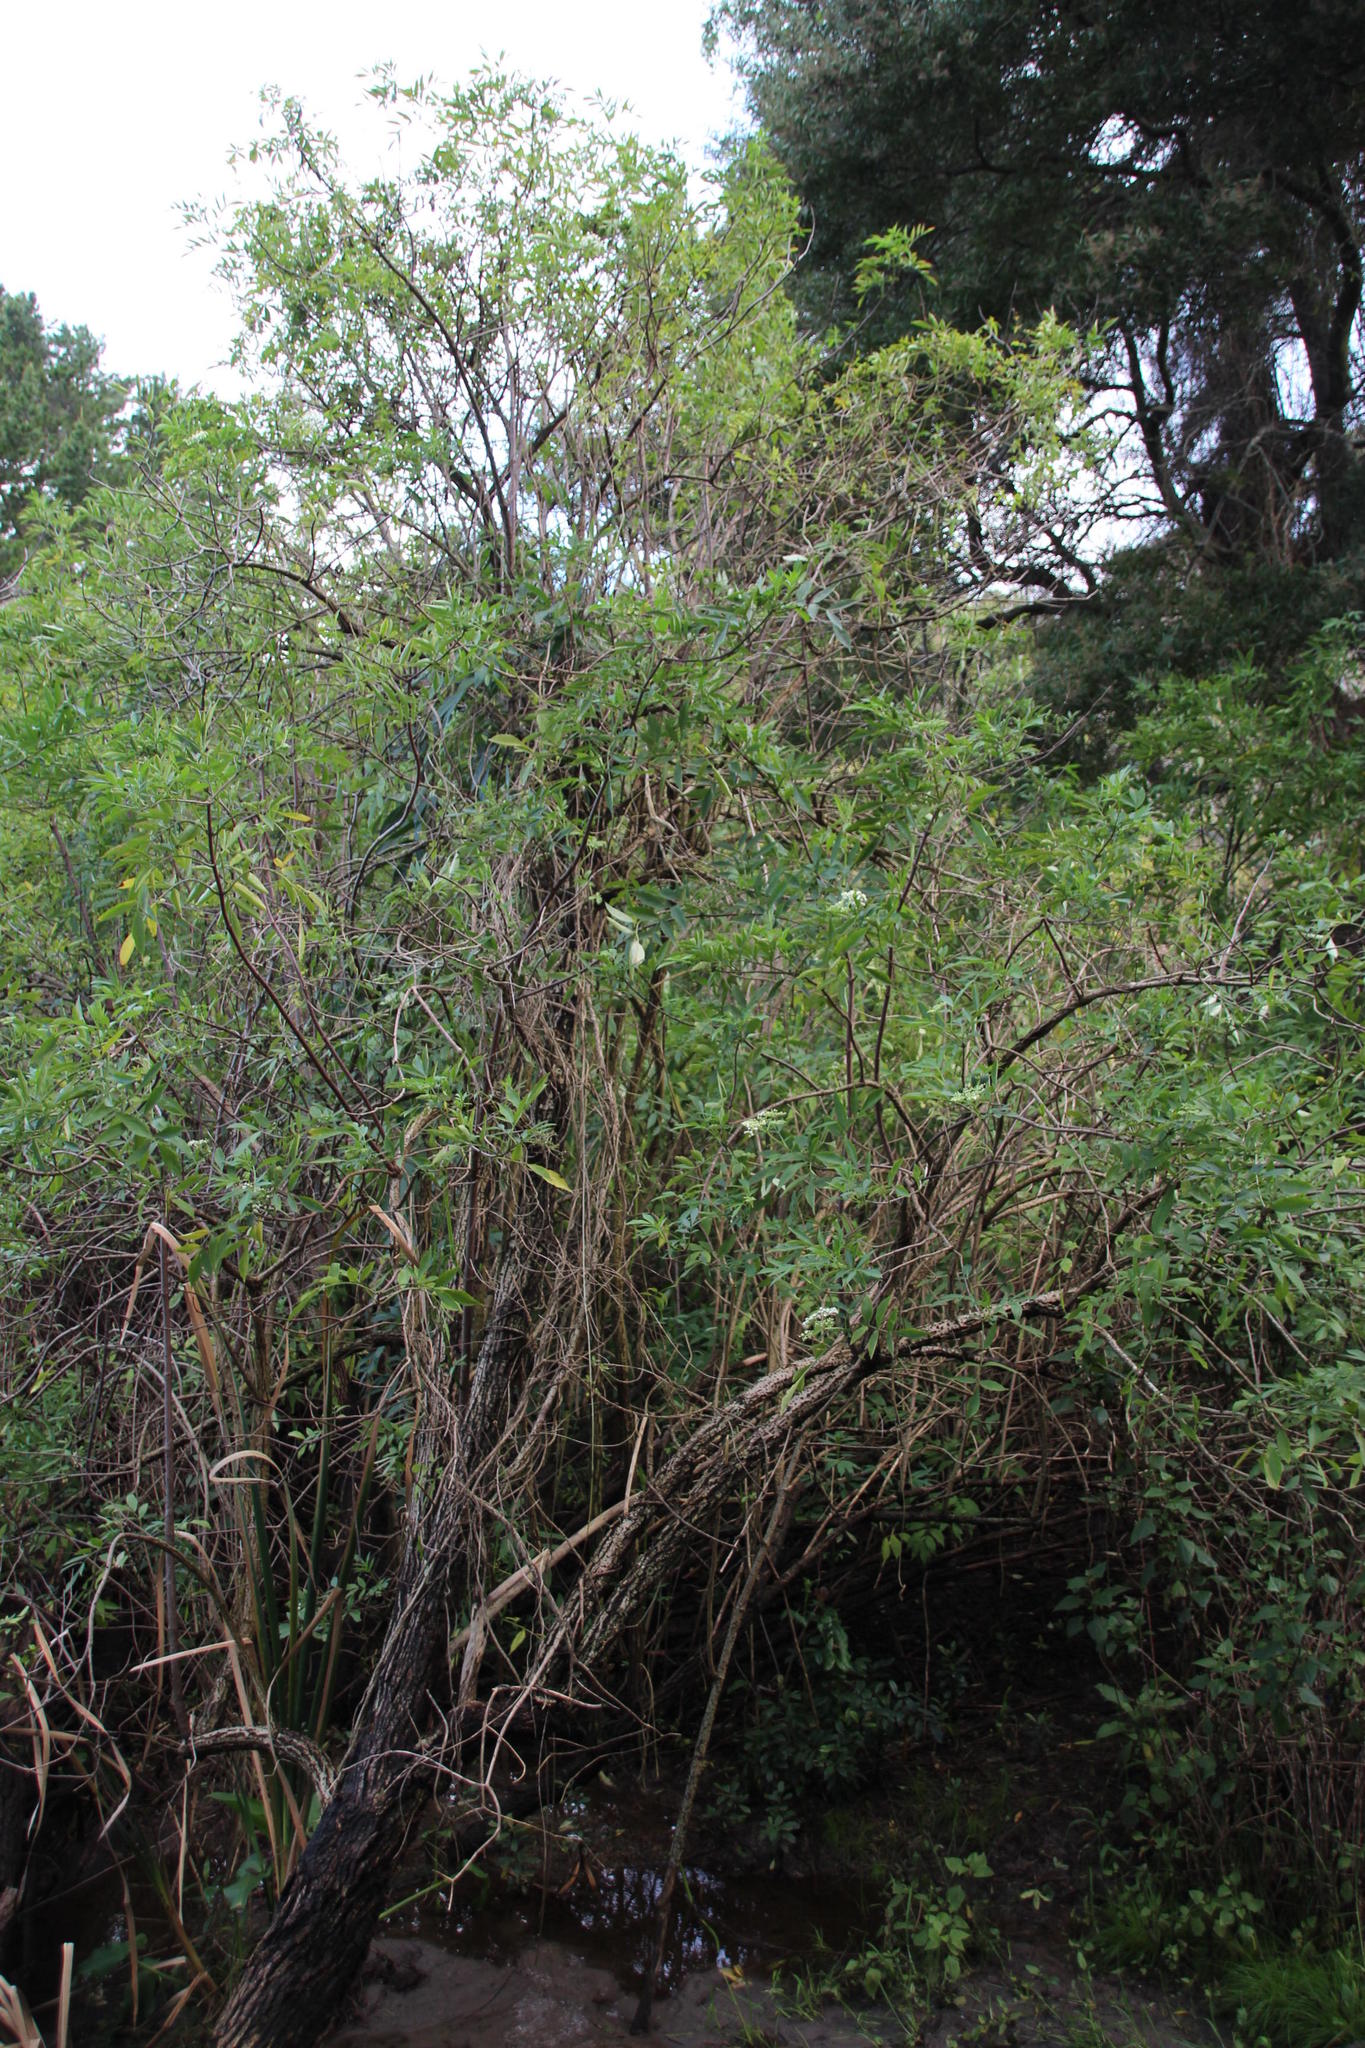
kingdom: Plantae
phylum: Tracheophyta
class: Magnoliopsida
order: Dipsacales
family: Viburnaceae
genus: Sambucus
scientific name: Sambucus nigra
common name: Elder
